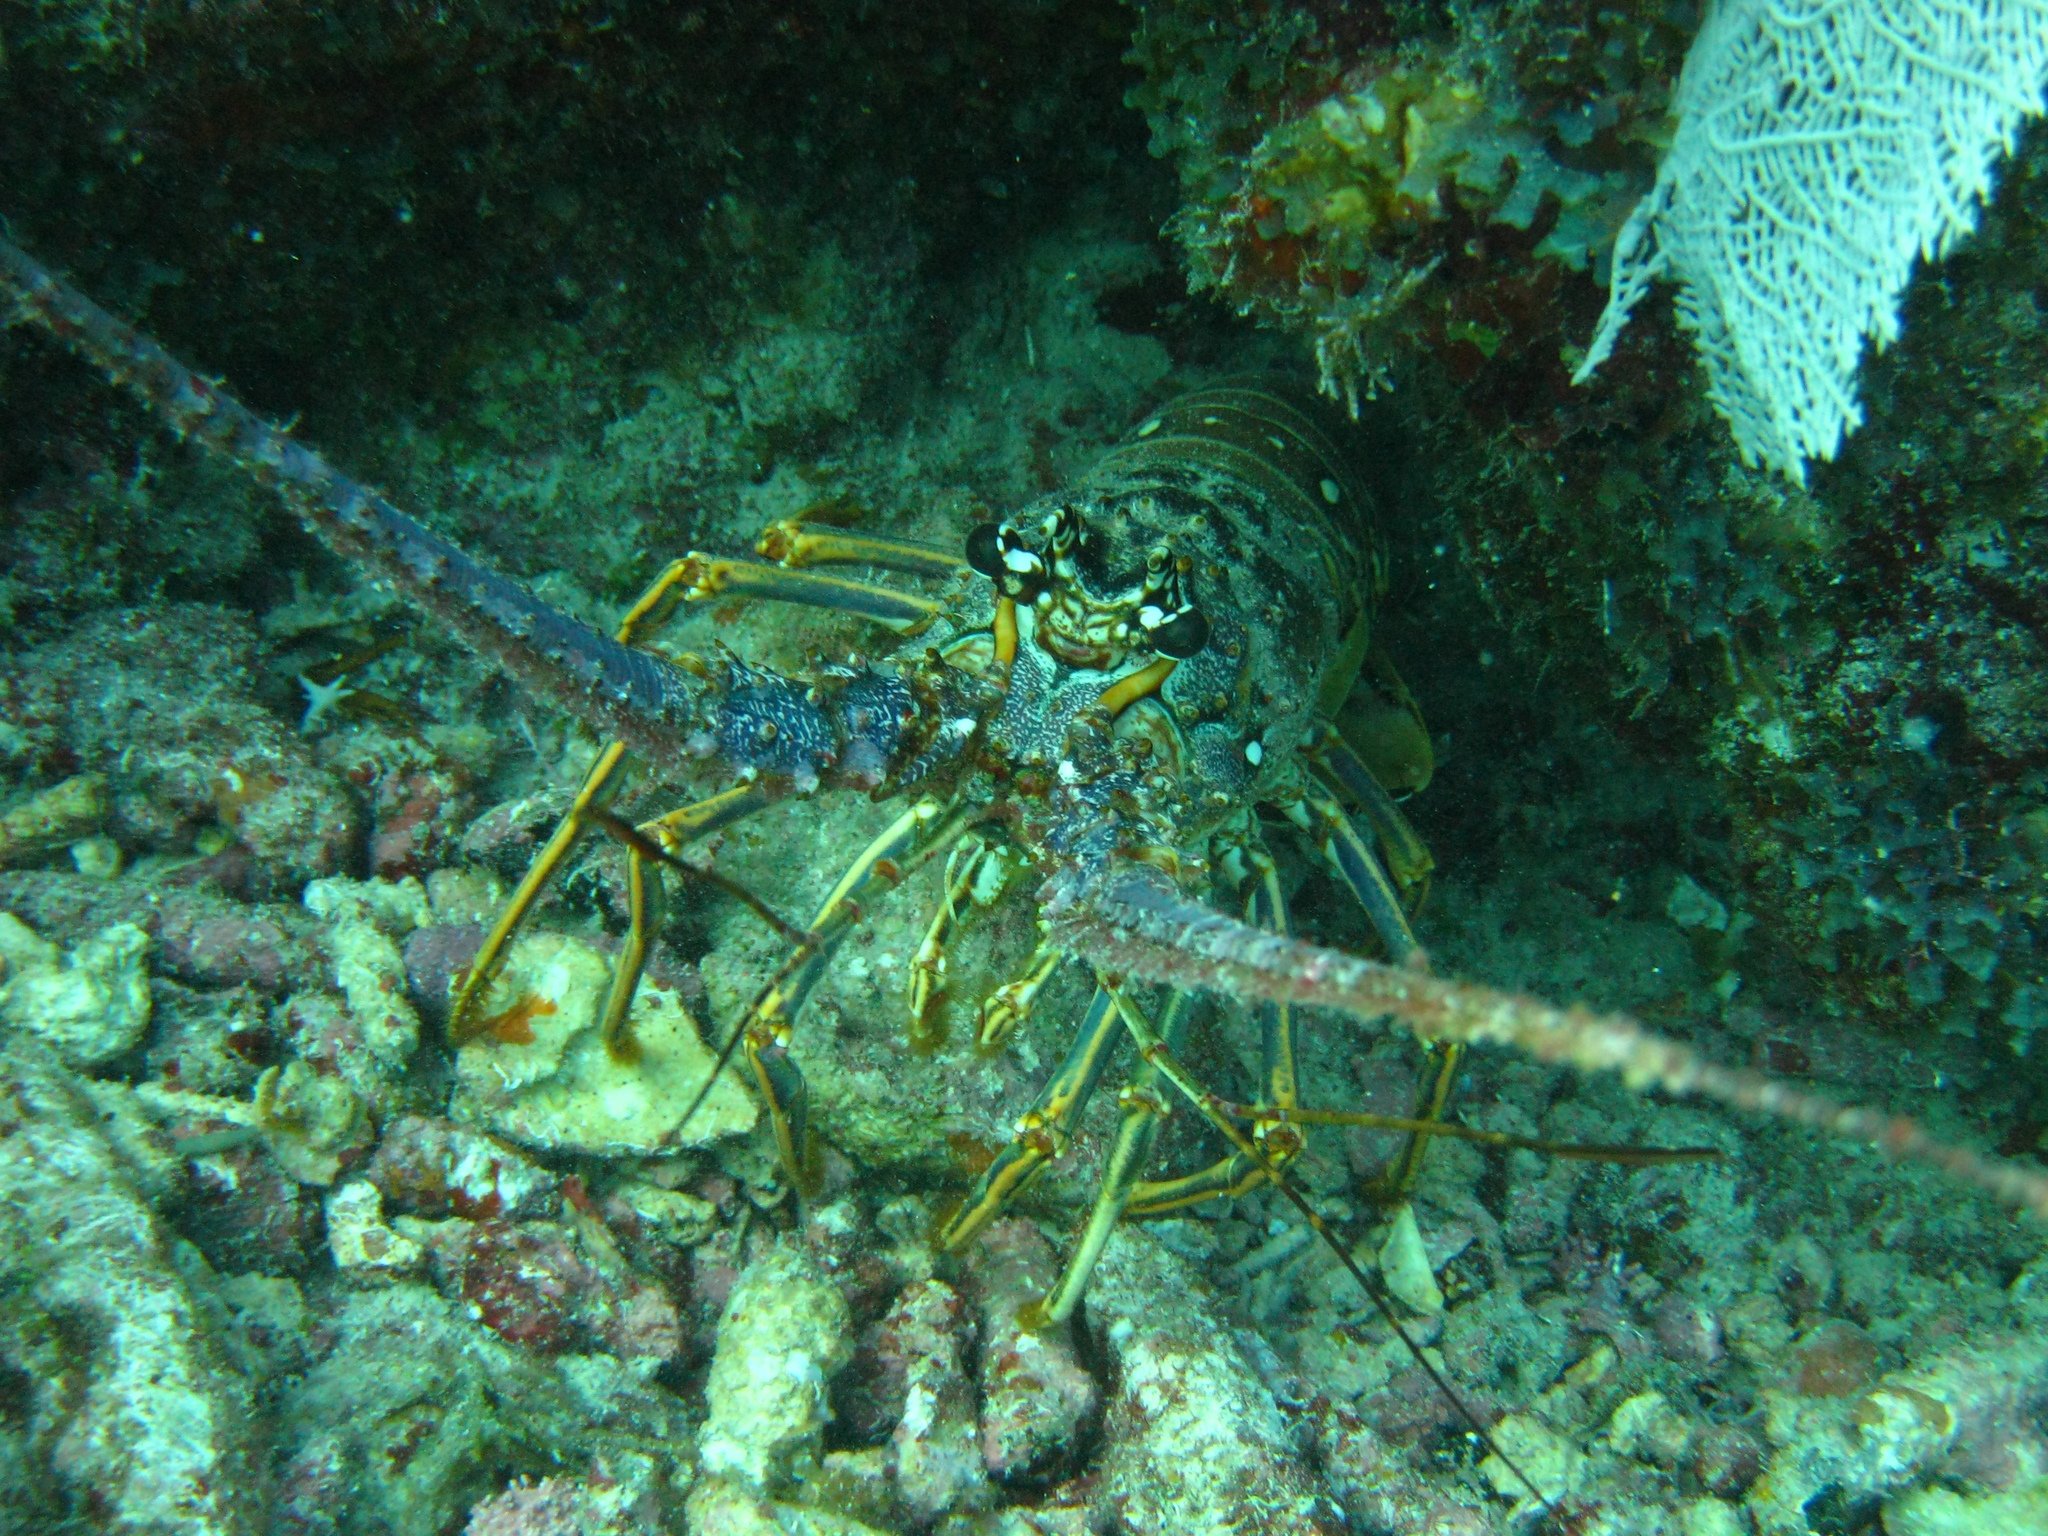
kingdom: Animalia
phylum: Arthropoda
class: Malacostraca
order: Decapoda
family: Palinuridae
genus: Panulirus
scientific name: Panulirus argus
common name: Caribbean spiny lobster
